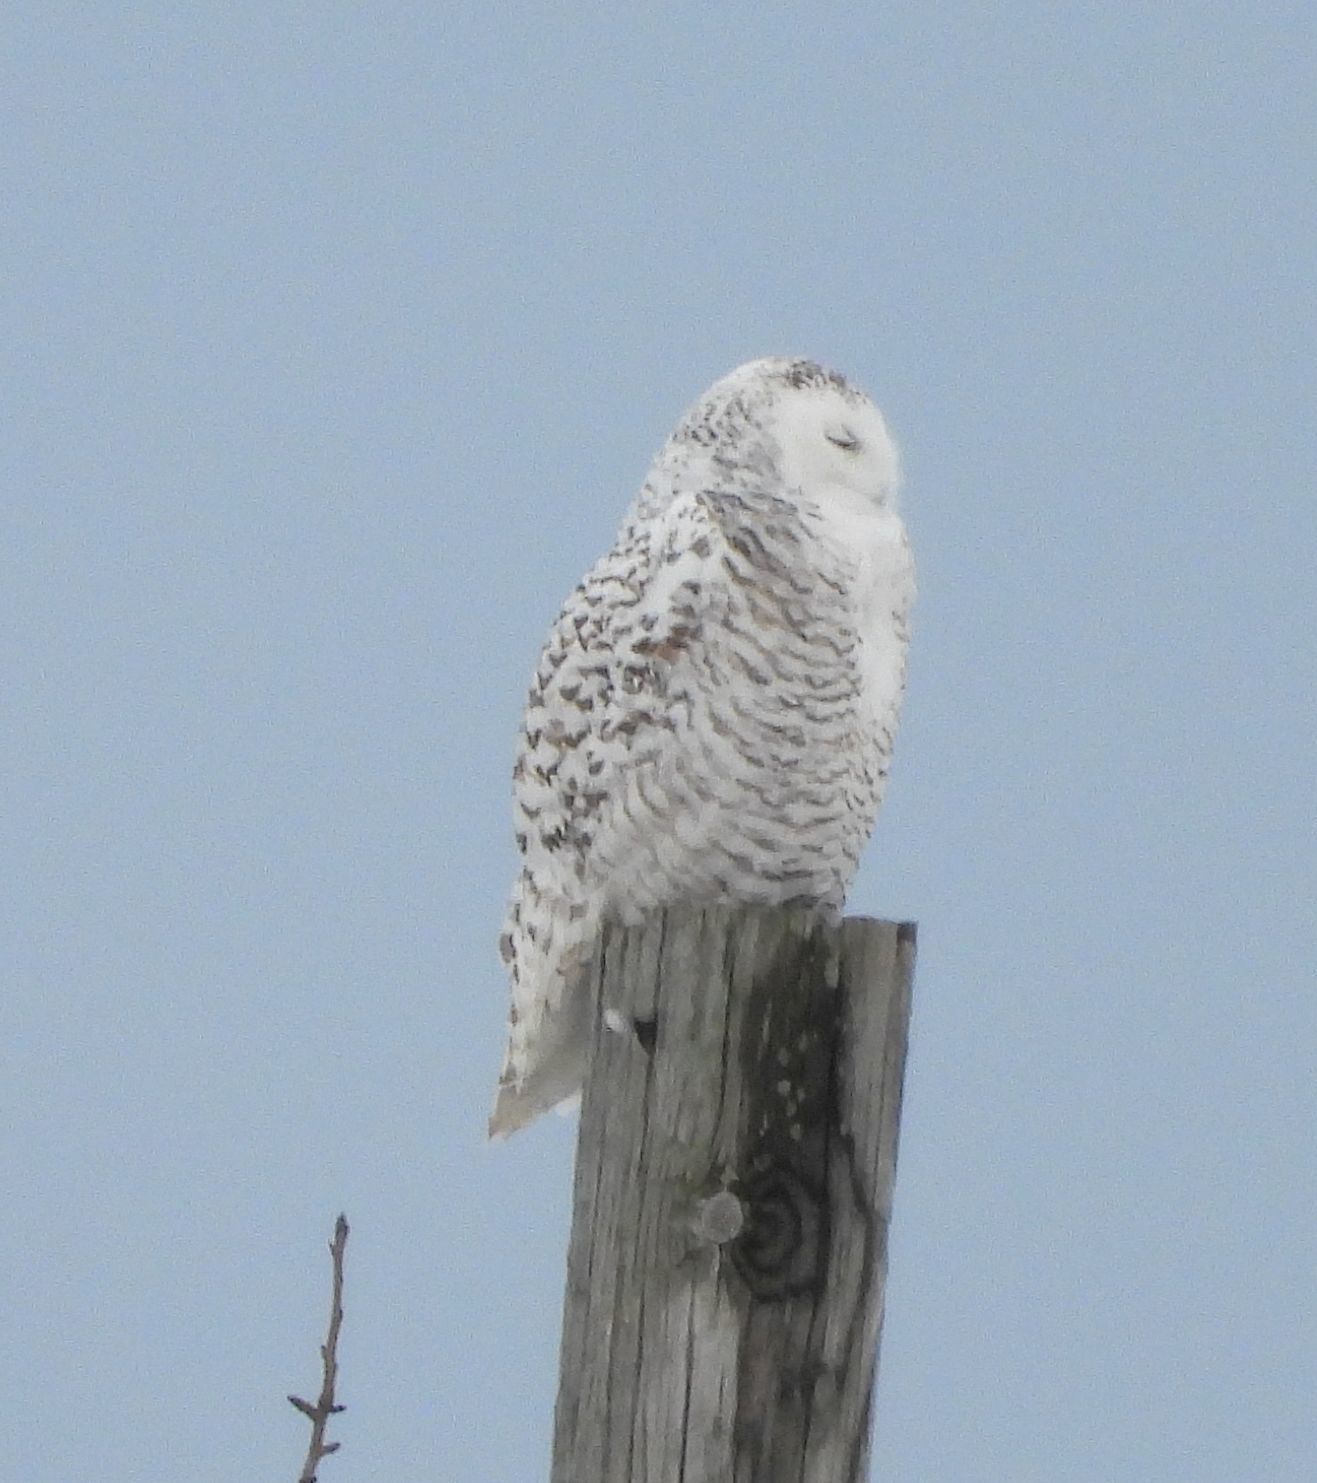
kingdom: Animalia
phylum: Chordata
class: Aves
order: Strigiformes
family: Strigidae
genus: Bubo
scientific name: Bubo scandiacus
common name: Snowy owl
